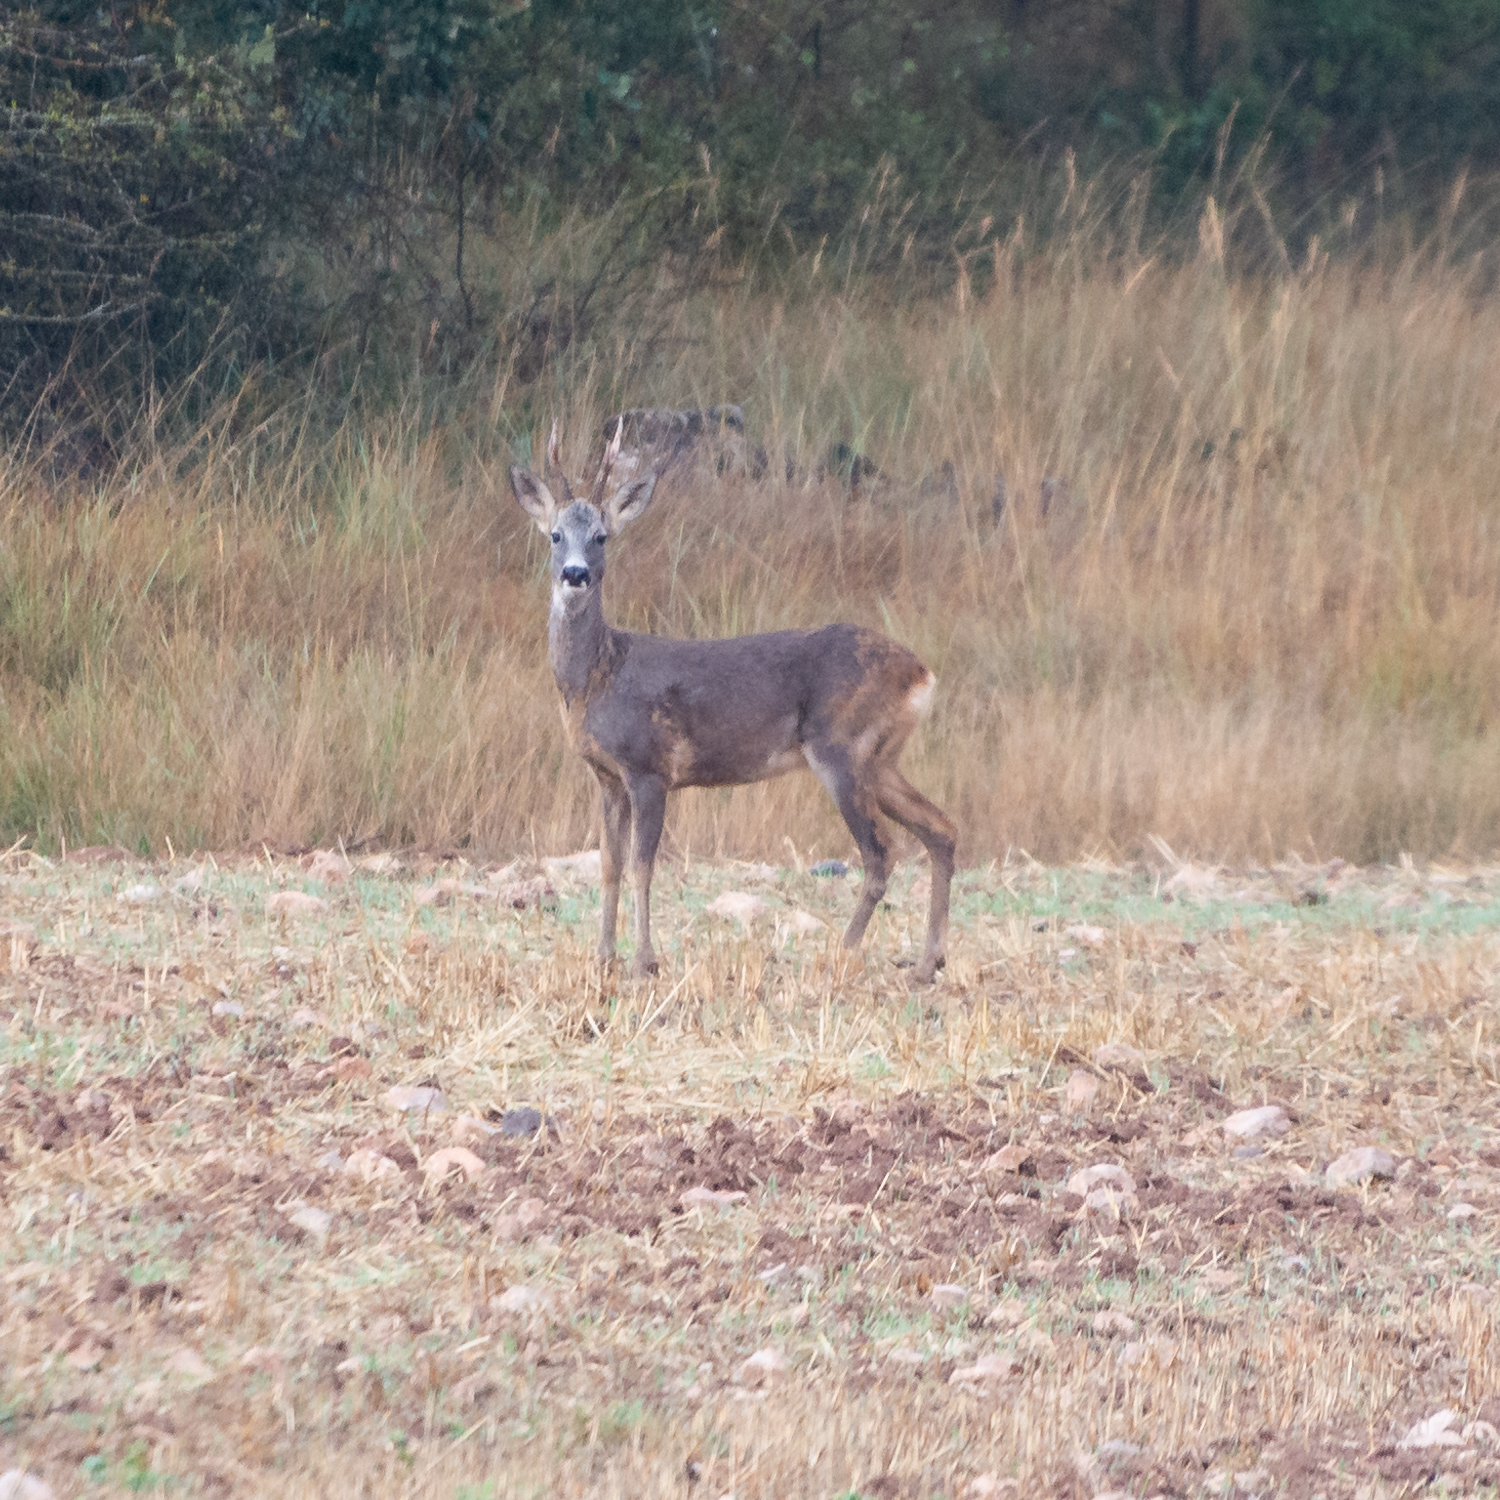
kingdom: Animalia
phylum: Chordata
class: Mammalia
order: Artiodactyla
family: Cervidae
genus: Capreolus
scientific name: Capreolus capreolus
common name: Western roe deer
